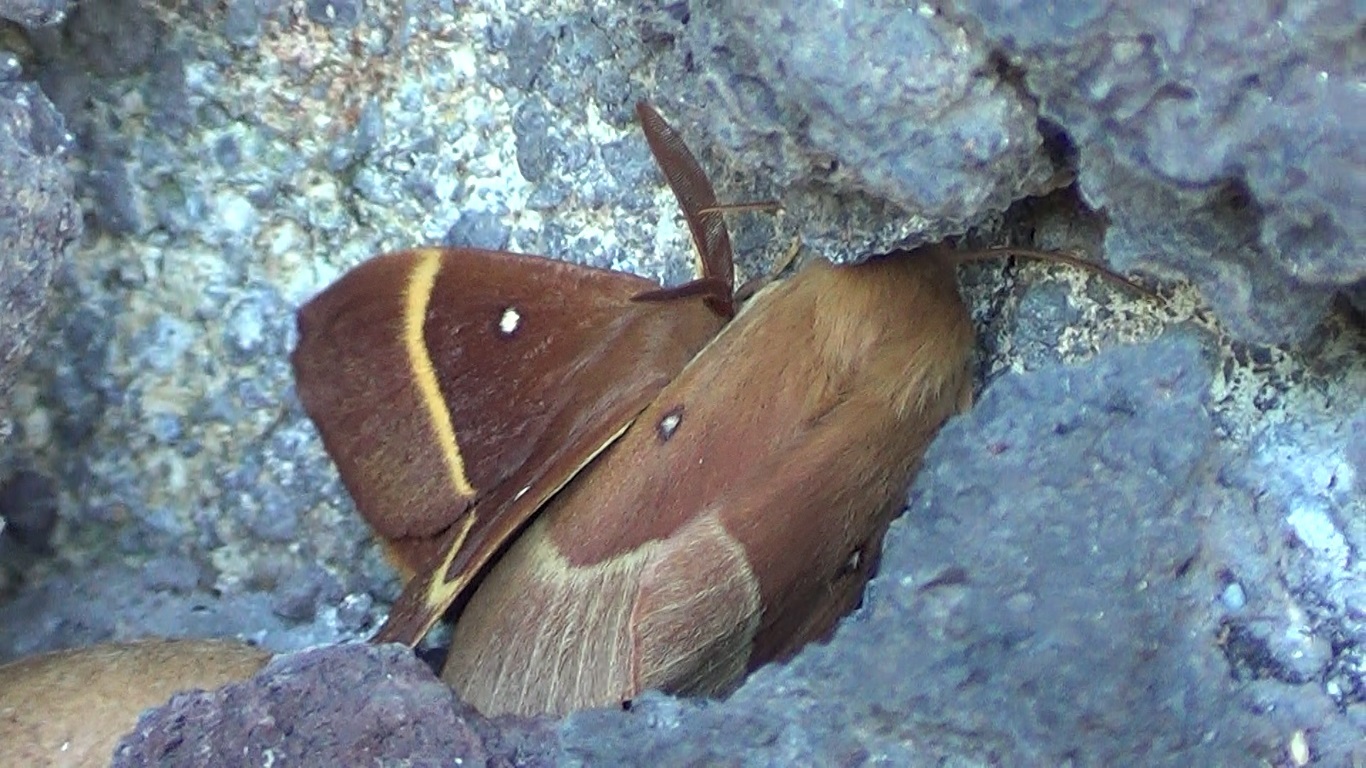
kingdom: Animalia
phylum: Arthropoda
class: Insecta
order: Lepidoptera
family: Lasiocampidae
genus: Lasiocampa
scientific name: Lasiocampa quercus
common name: Oak eggar
